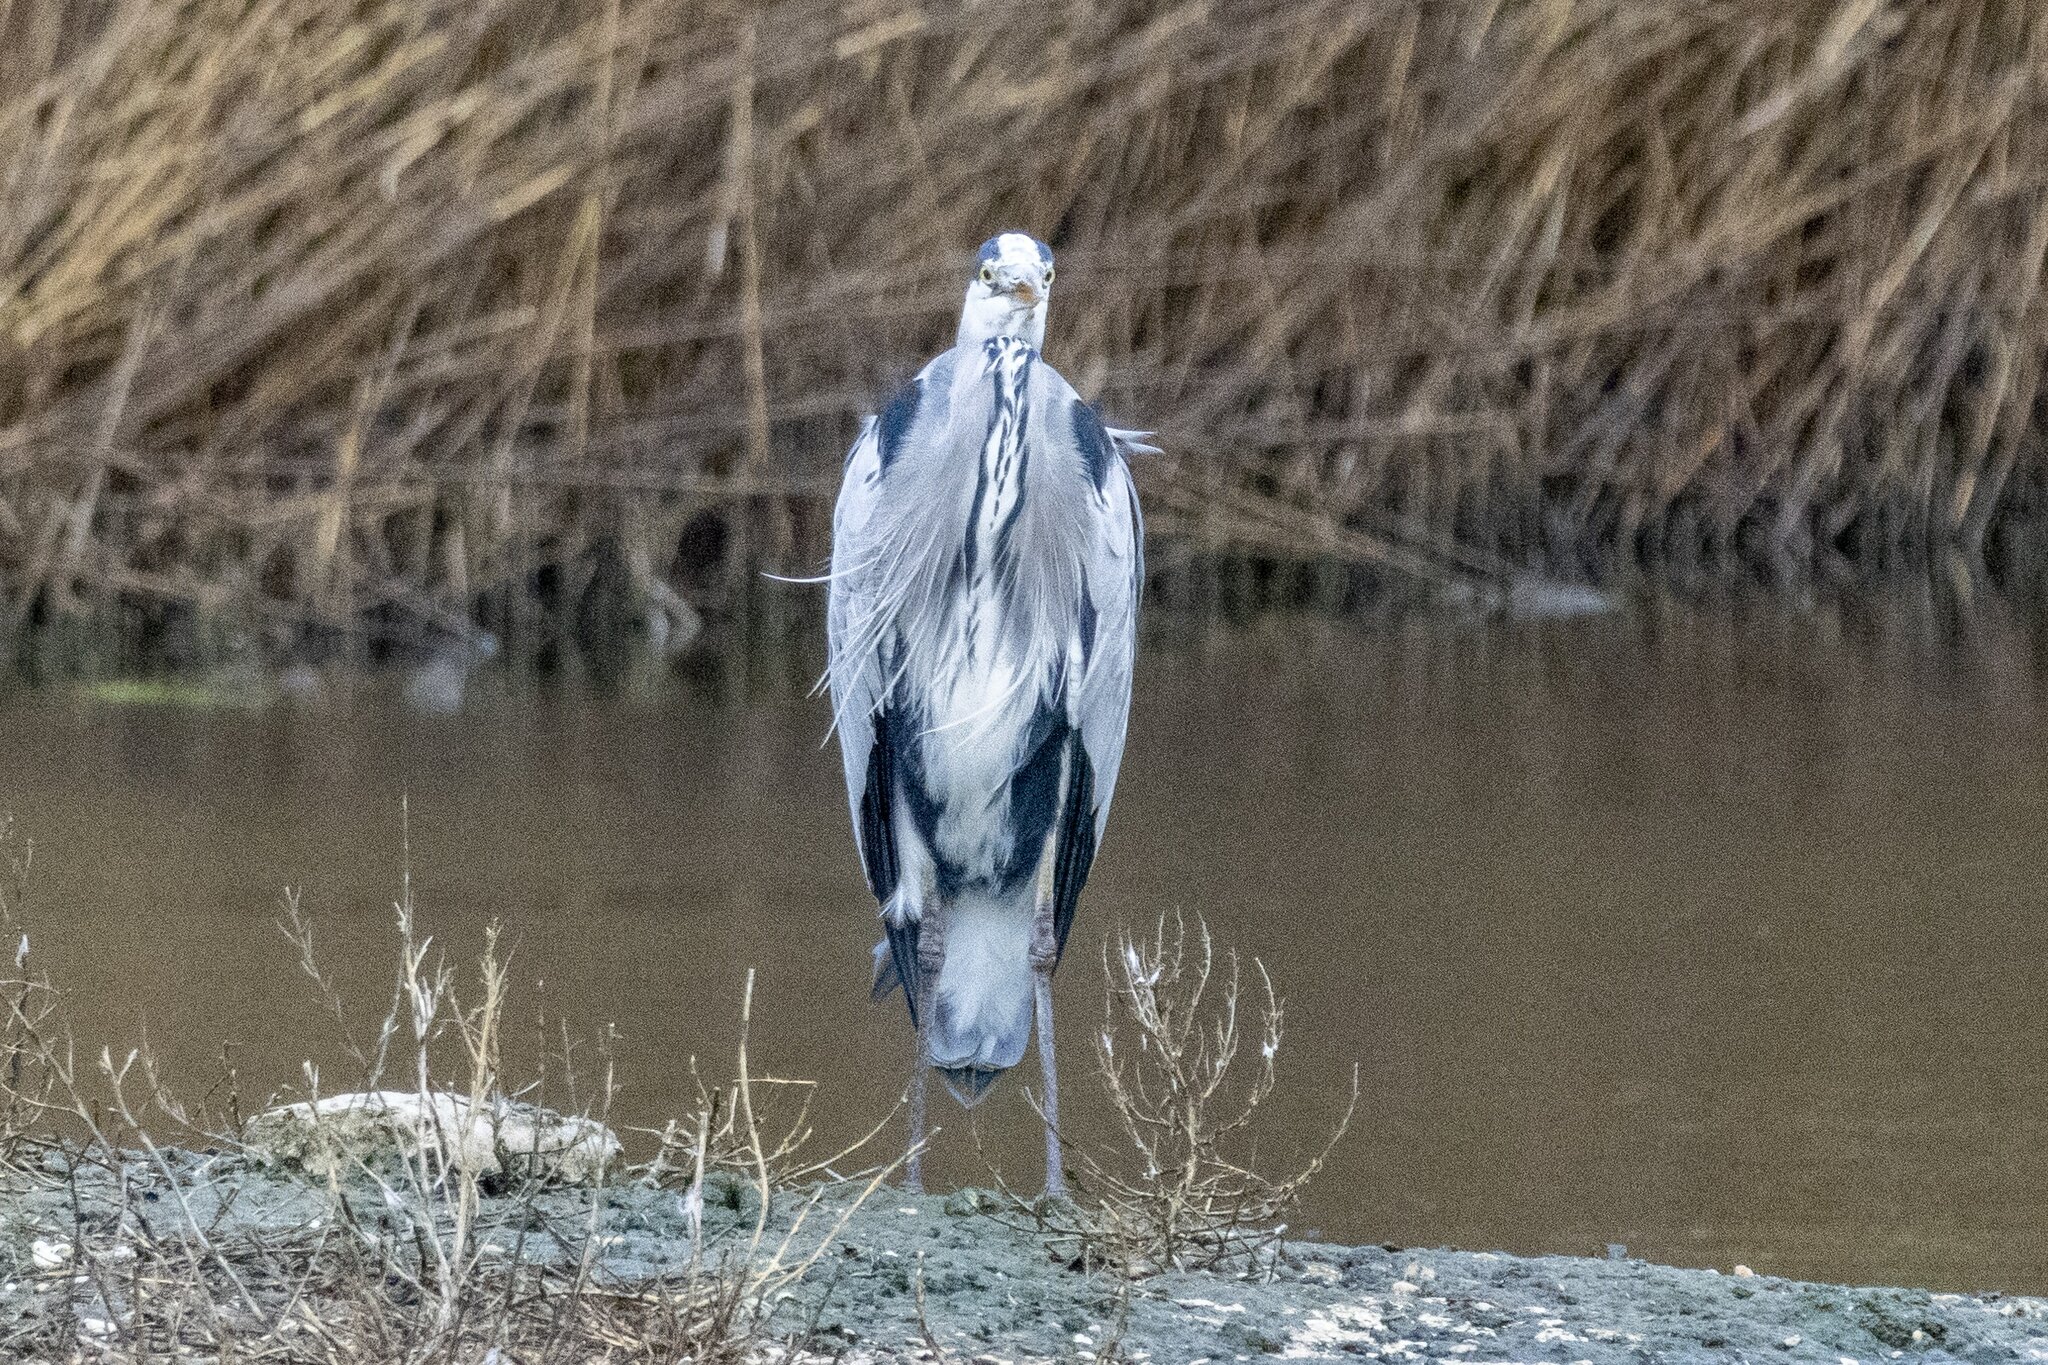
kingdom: Animalia
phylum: Chordata
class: Aves
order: Pelecaniformes
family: Ardeidae
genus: Ardea
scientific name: Ardea cinerea
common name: Grey heron
